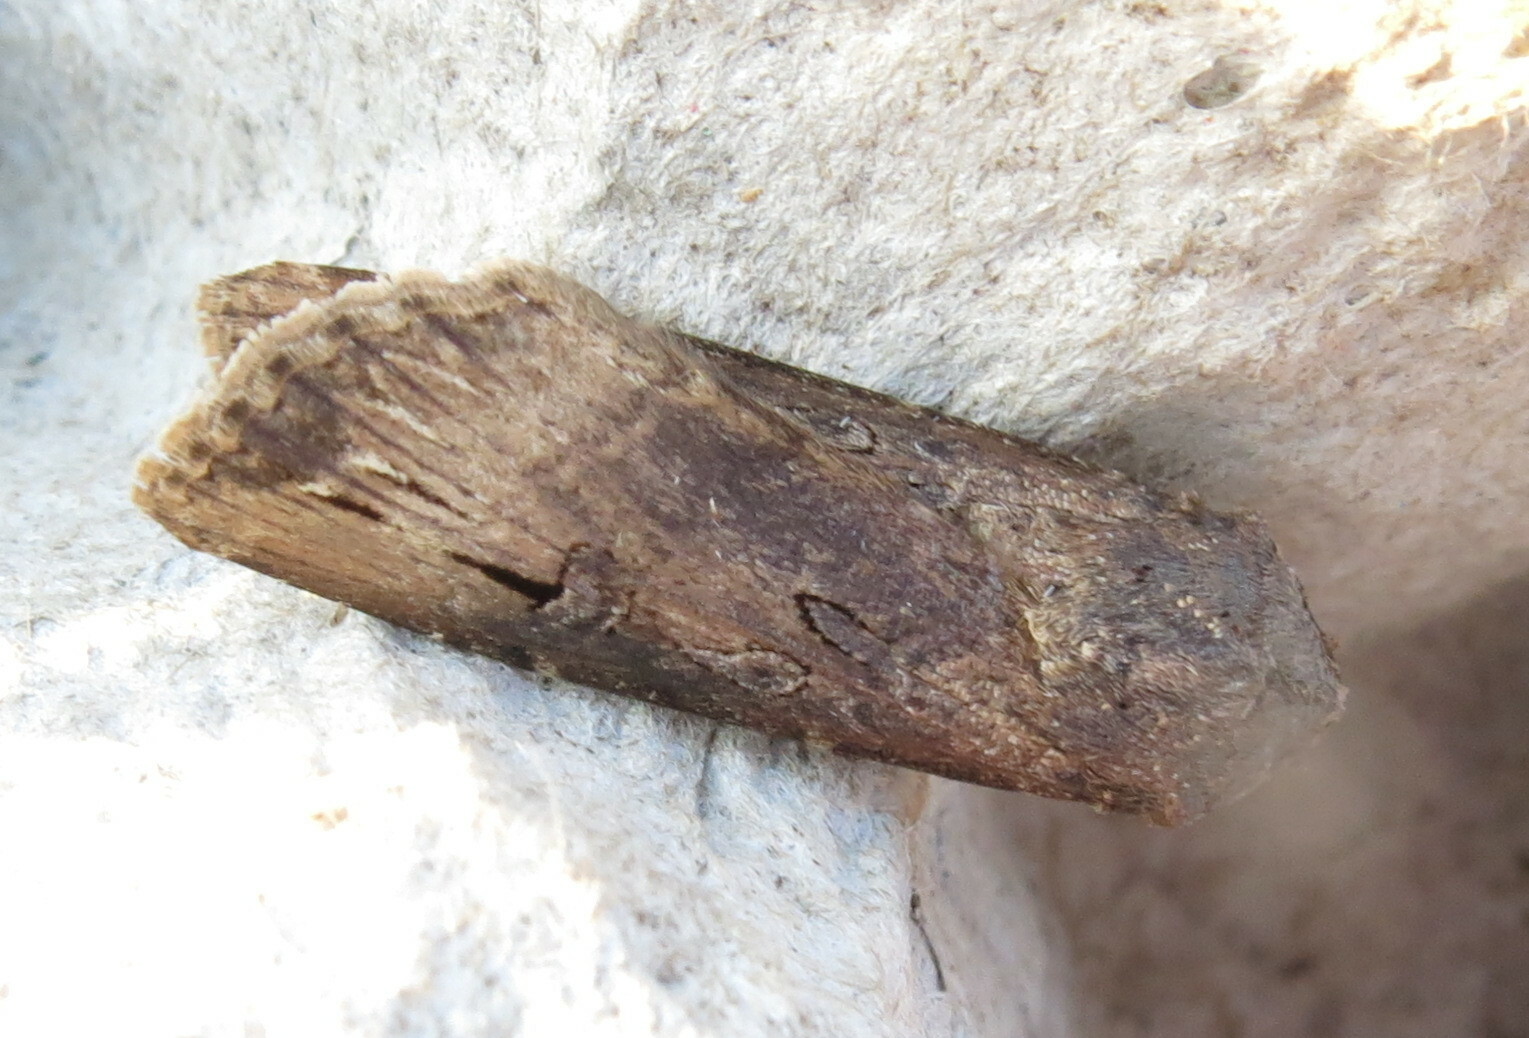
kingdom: Animalia
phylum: Arthropoda
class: Insecta
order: Lepidoptera
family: Noctuidae
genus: Agrotis
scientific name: Agrotis ipsilon
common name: Dark sword-grass
